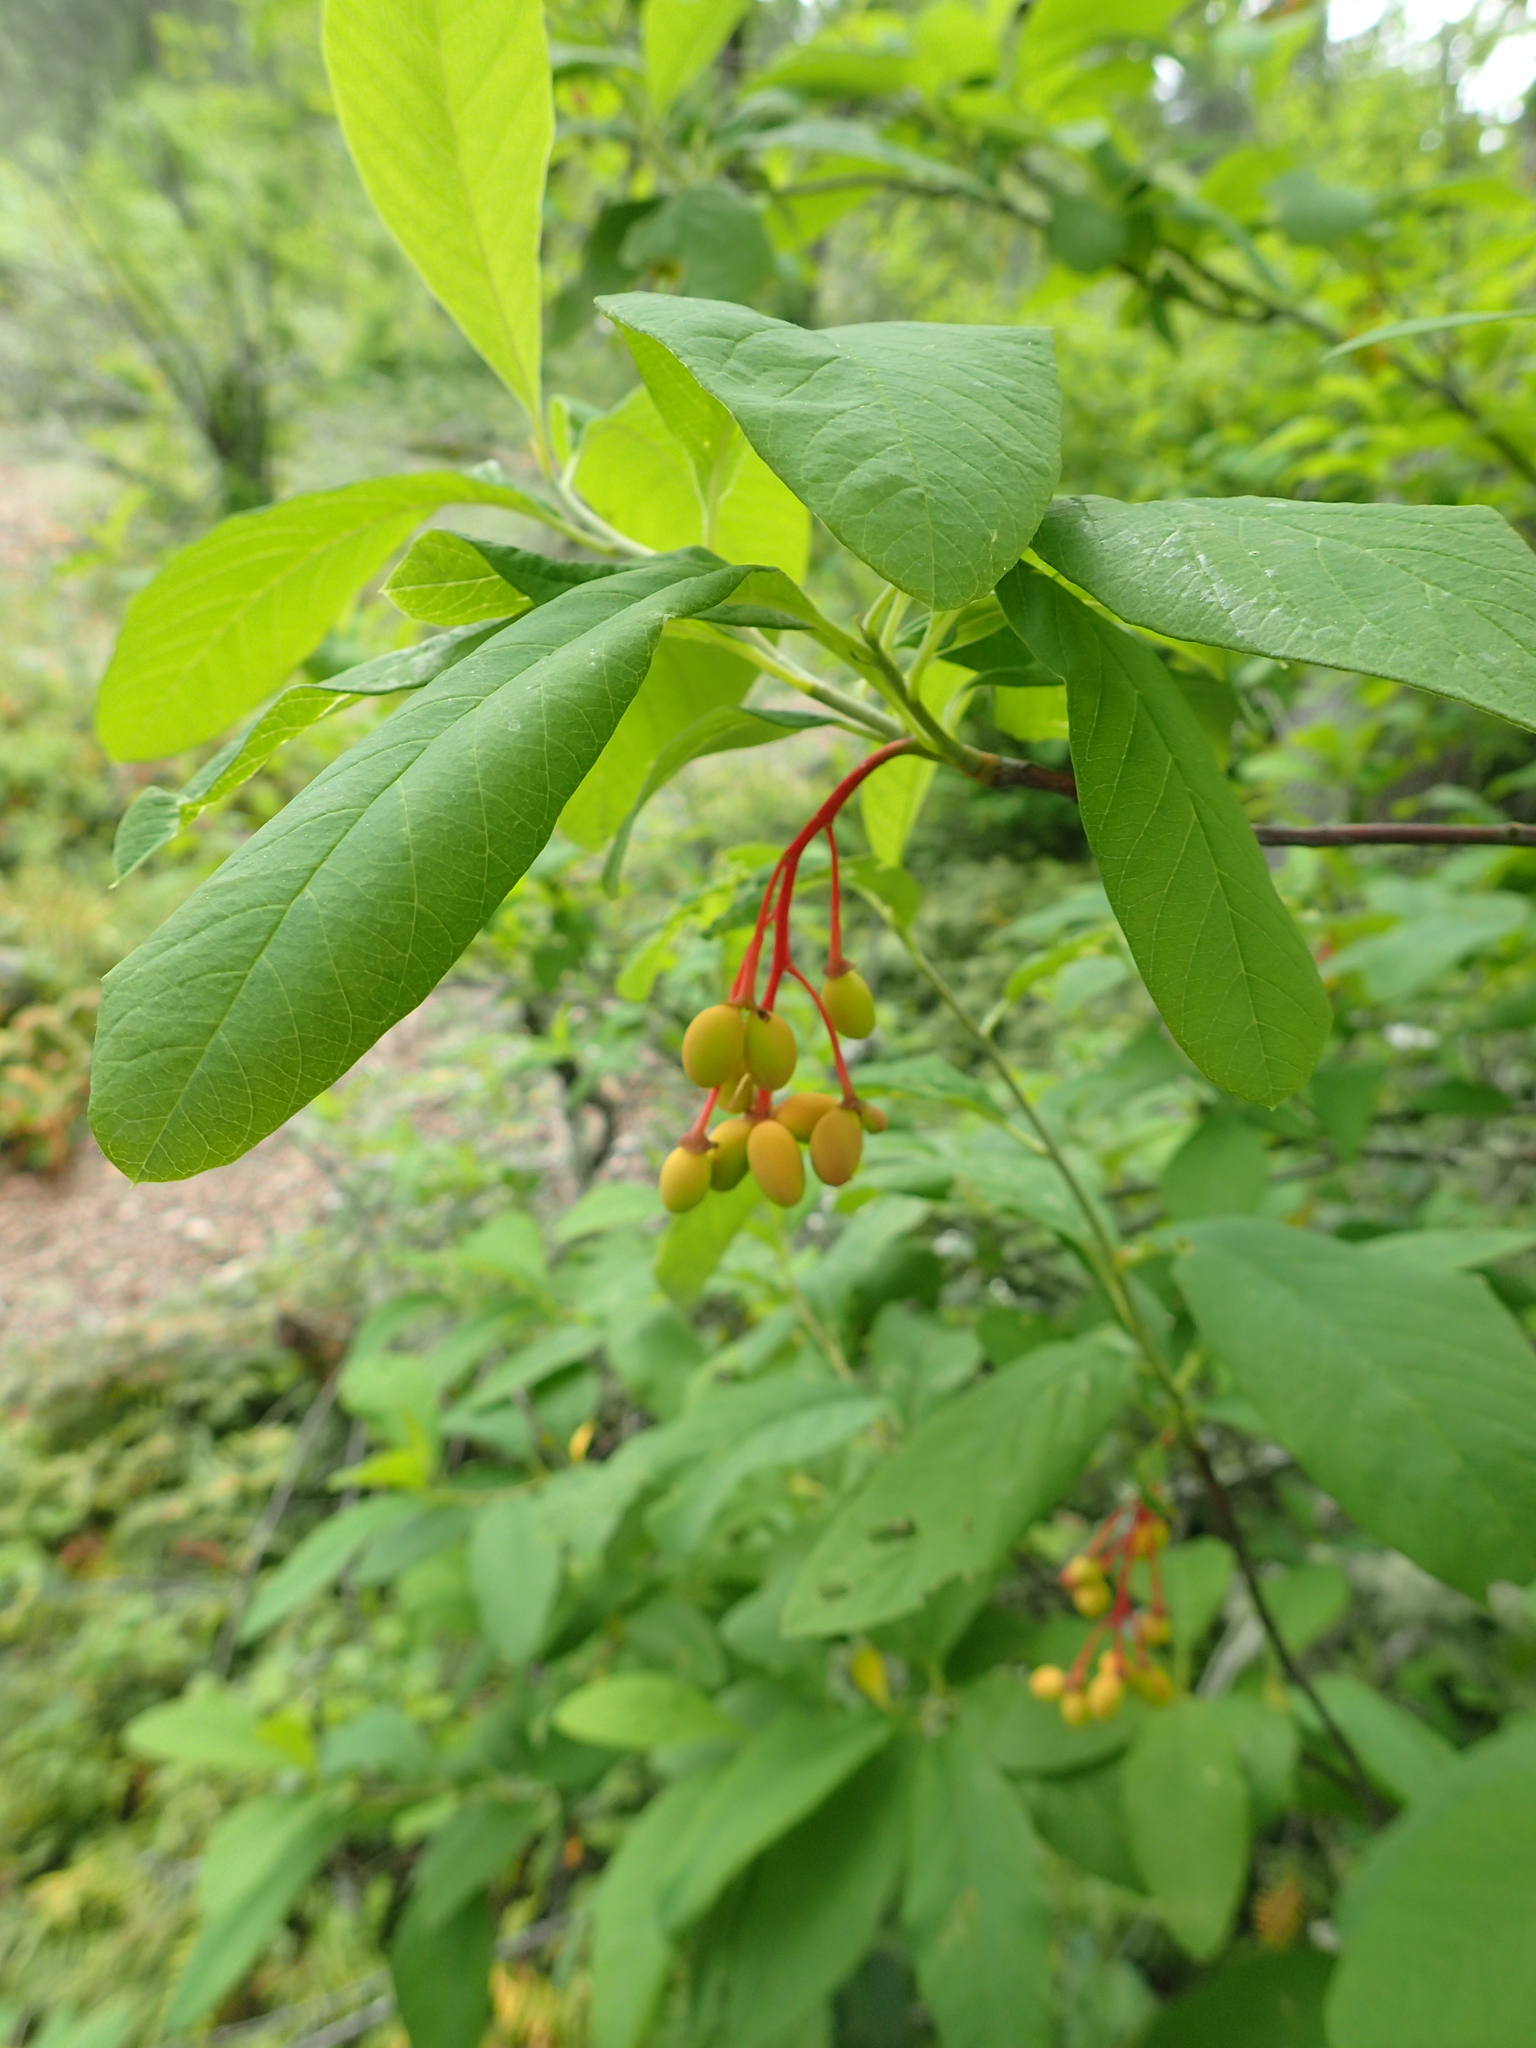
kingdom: Plantae
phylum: Tracheophyta
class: Magnoliopsida
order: Rosales
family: Rosaceae
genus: Oemleria
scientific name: Oemleria cerasiformis
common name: Osoberry
